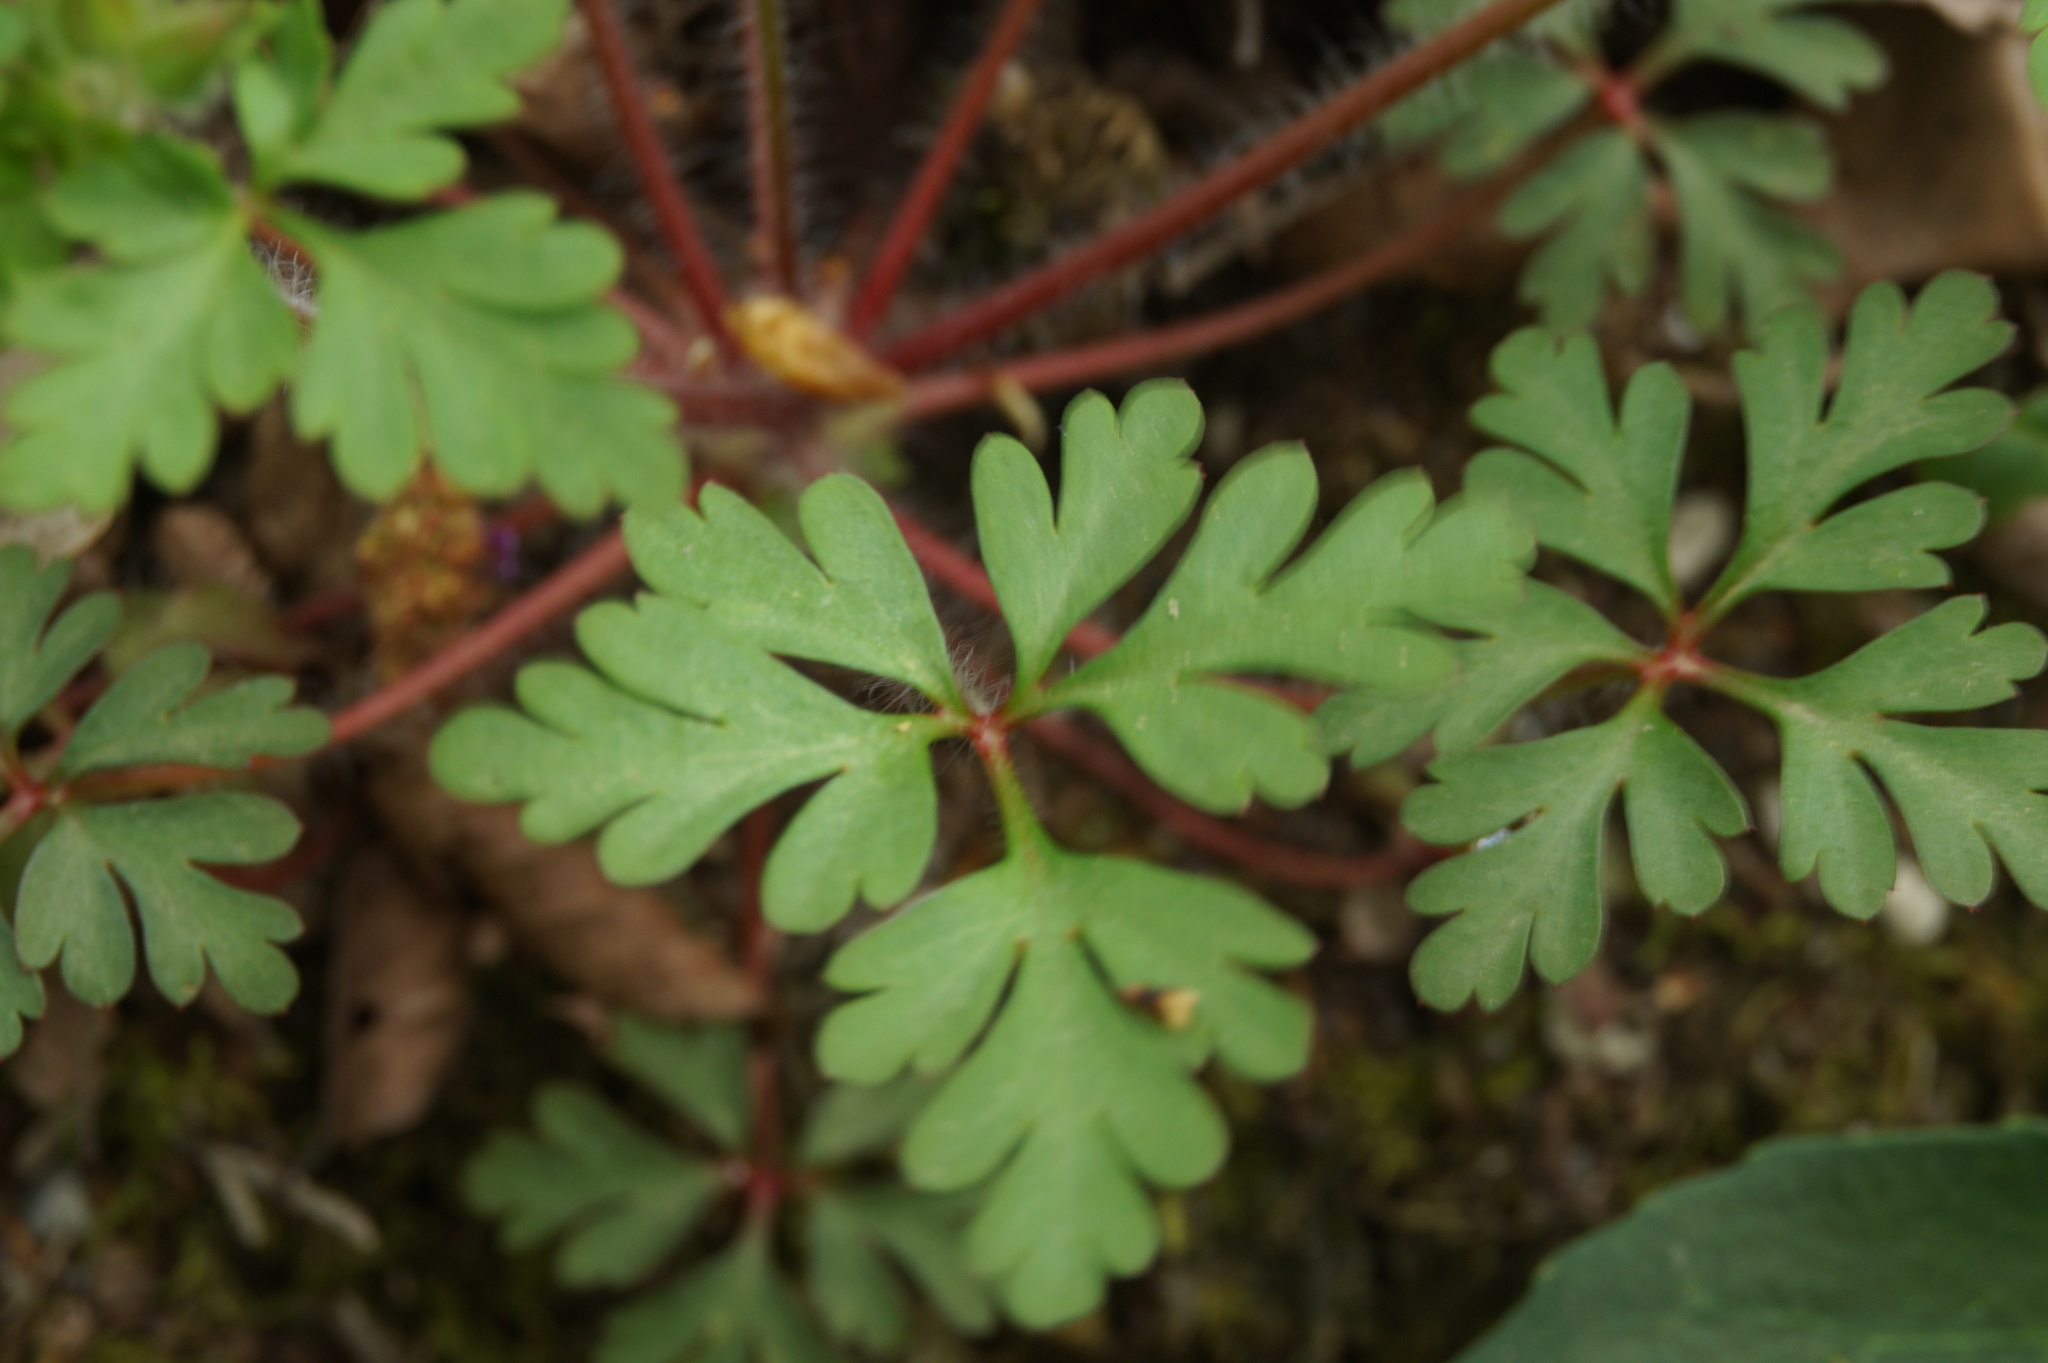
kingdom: Plantae
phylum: Tracheophyta
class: Magnoliopsida
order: Geraniales
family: Geraniaceae
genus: Geranium
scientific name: Geranium robertianum
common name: Herb-robert
